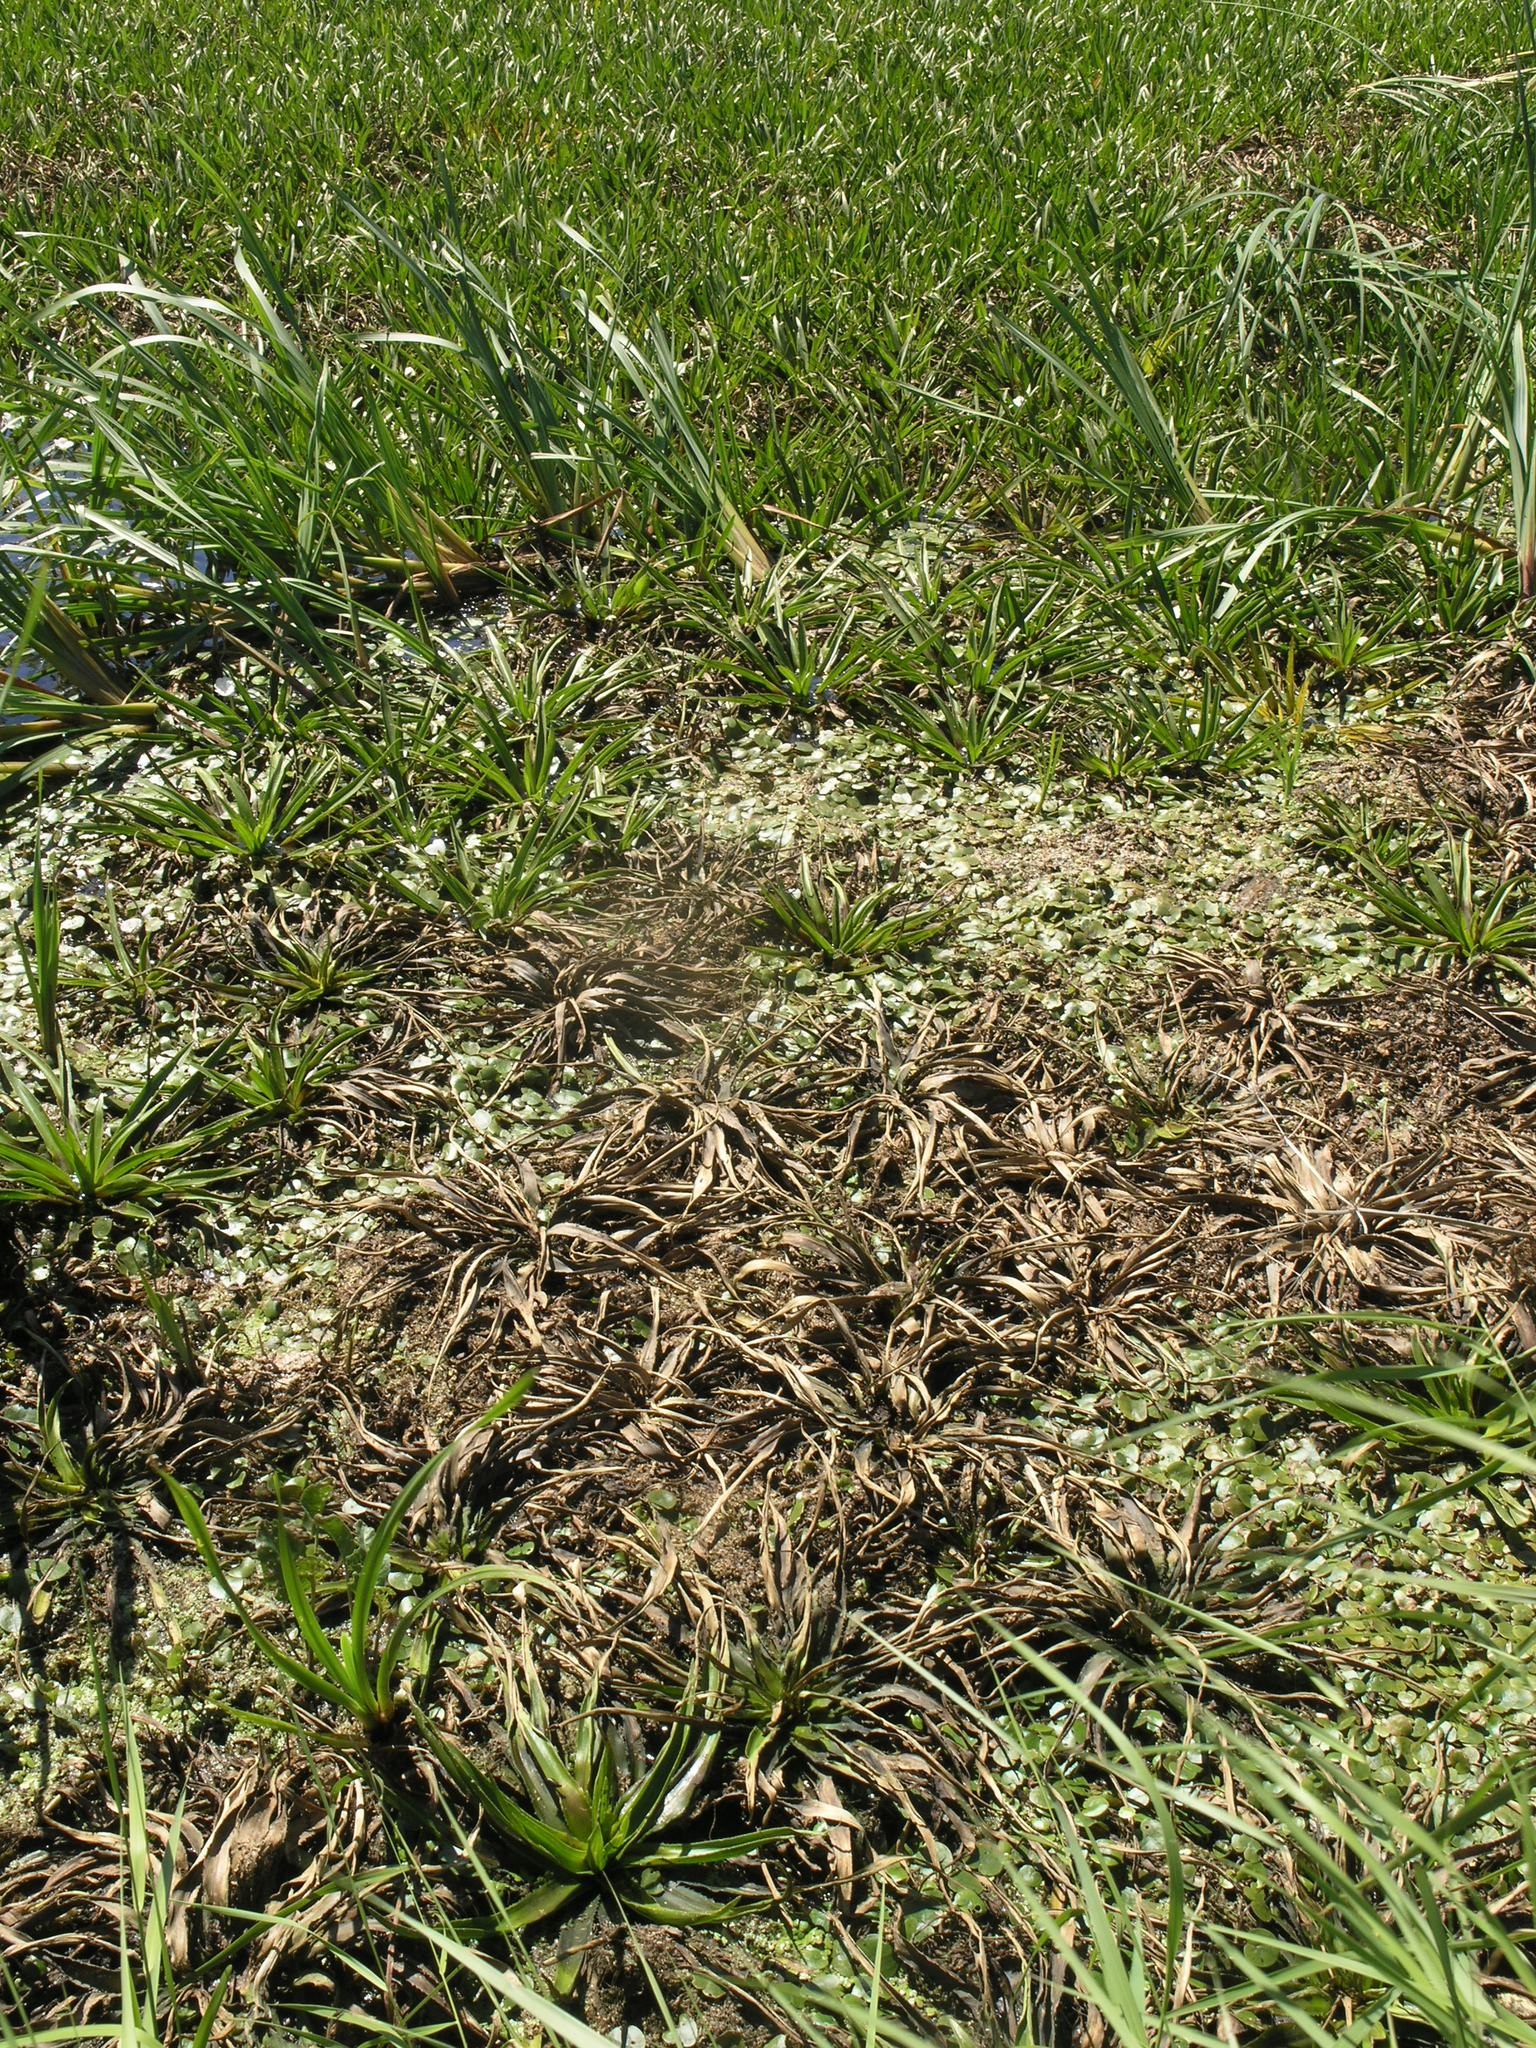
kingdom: Plantae
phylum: Tracheophyta
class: Liliopsida
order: Alismatales
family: Hydrocharitaceae
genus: Stratiotes
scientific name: Stratiotes aloides
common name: Water-soldier
